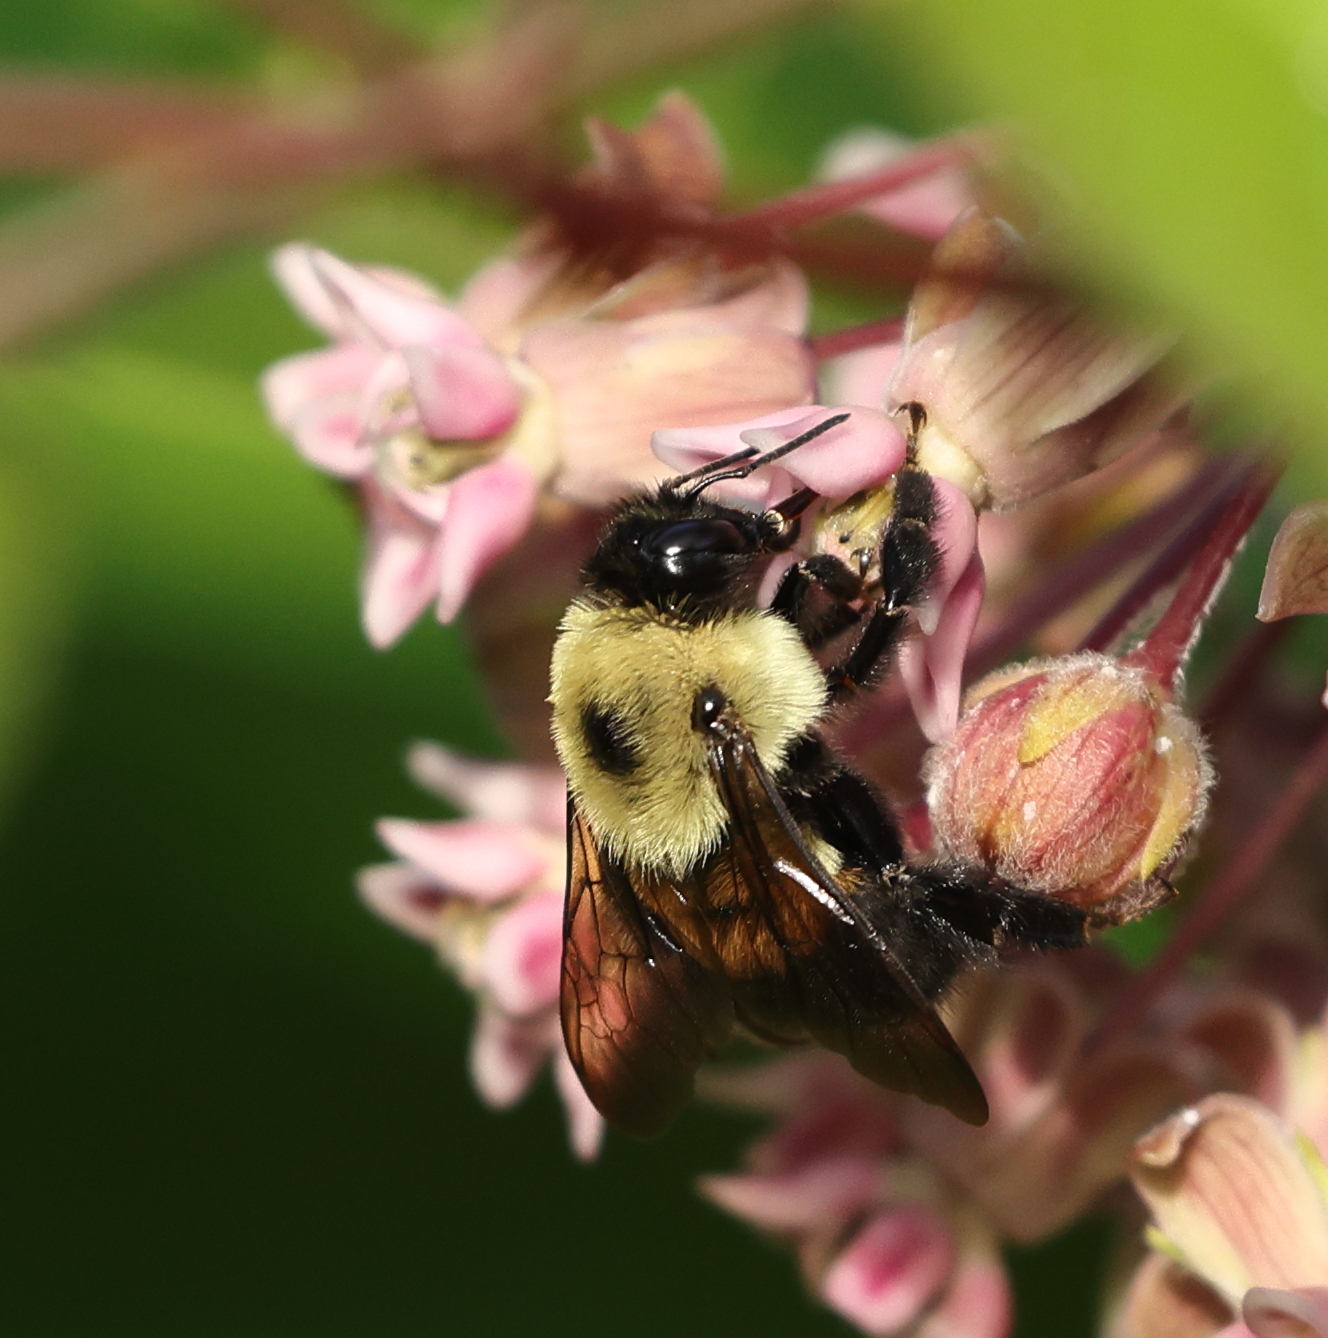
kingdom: Animalia
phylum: Arthropoda
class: Insecta
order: Hymenoptera
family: Apidae
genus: Bombus
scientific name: Bombus griseocollis
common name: Brown-belted bumble bee
